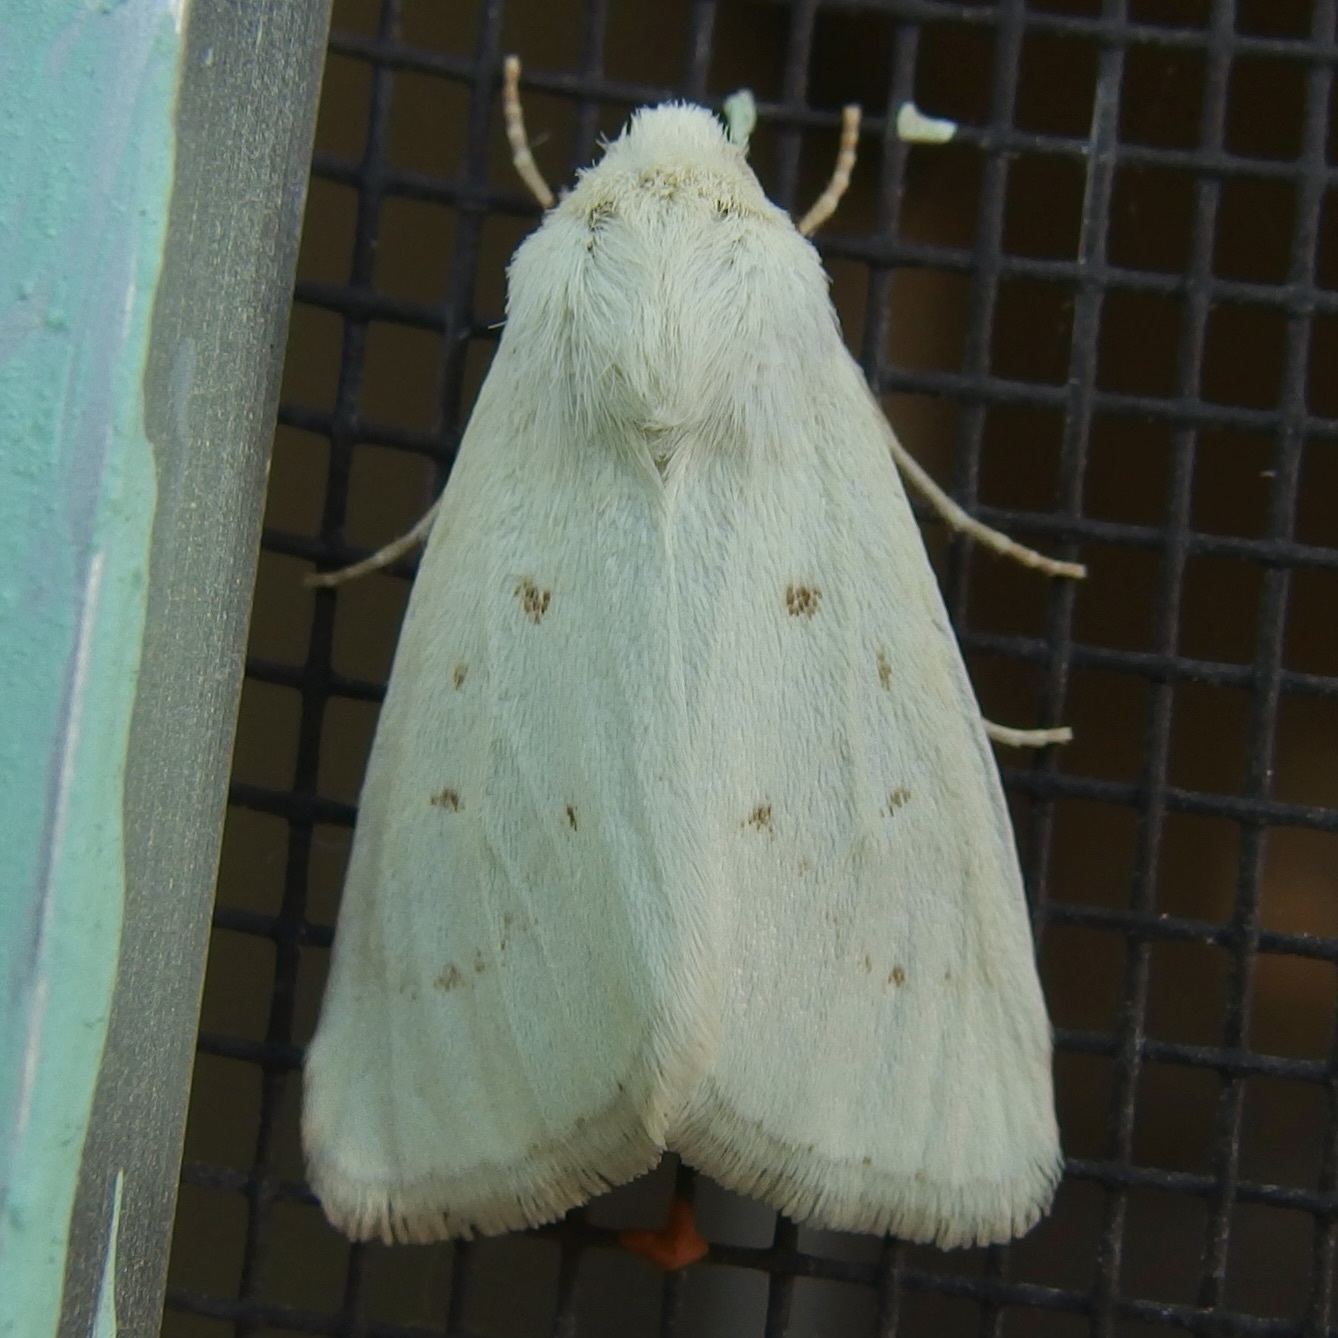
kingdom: Animalia
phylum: Arthropoda
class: Insecta
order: Lepidoptera
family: Noctuidae
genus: Schinia
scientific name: Schinia luxa
